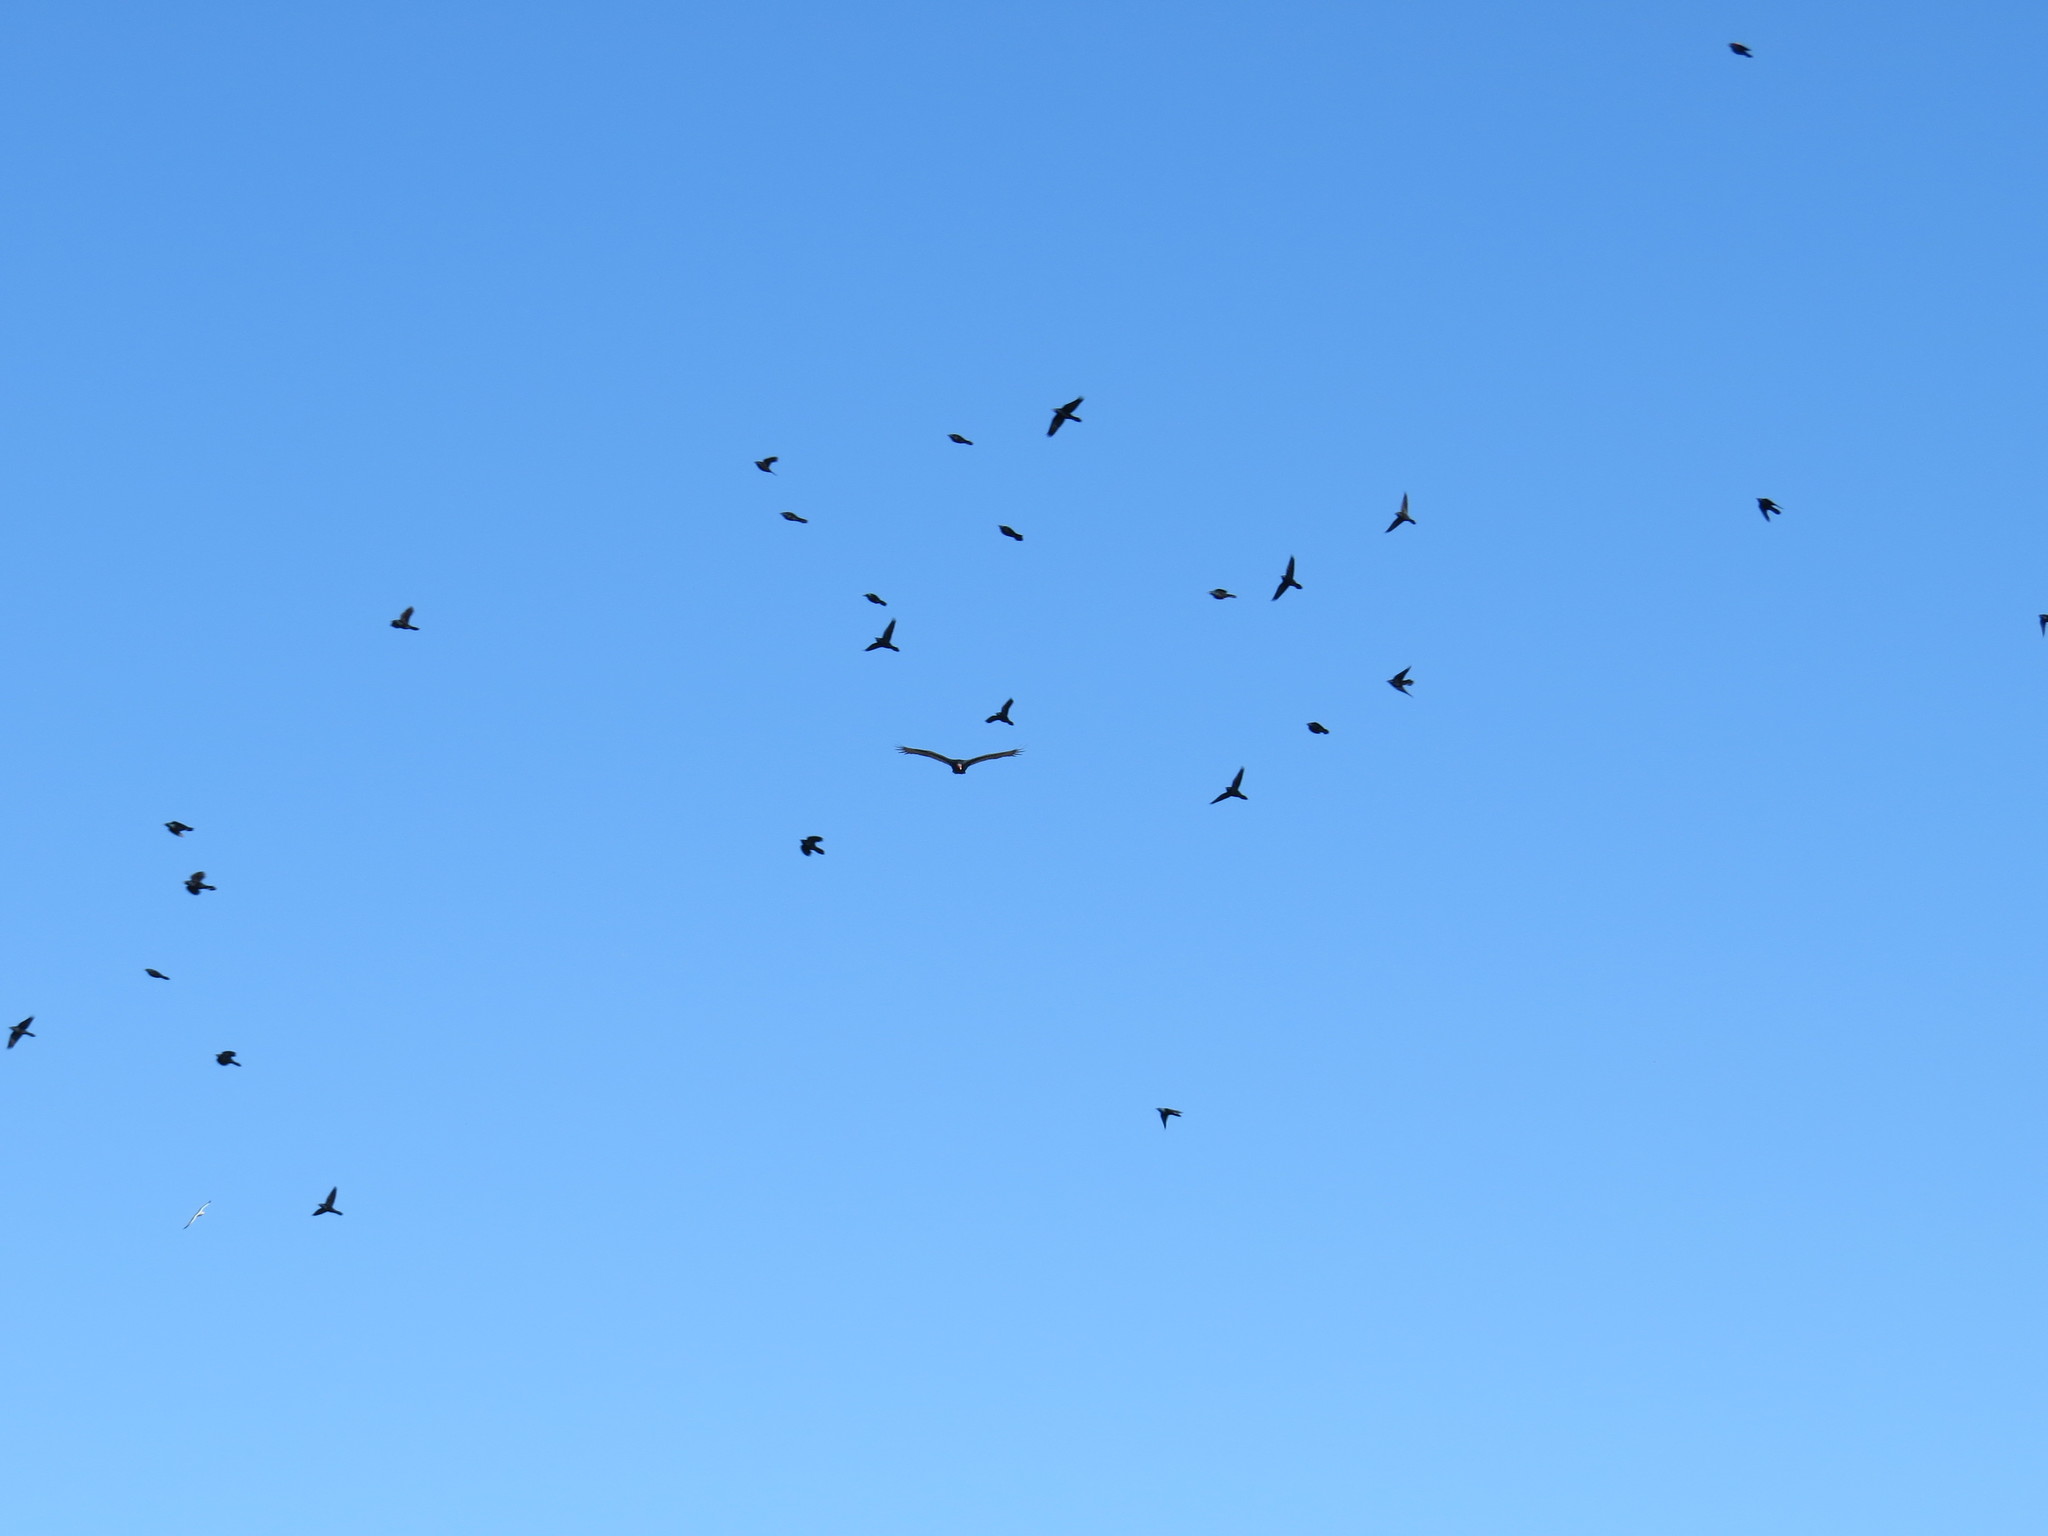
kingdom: Animalia
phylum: Chordata
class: Aves
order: Accipitriformes
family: Cathartidae
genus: Cathartes
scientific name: Cathartes aura
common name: Turkey vulture
